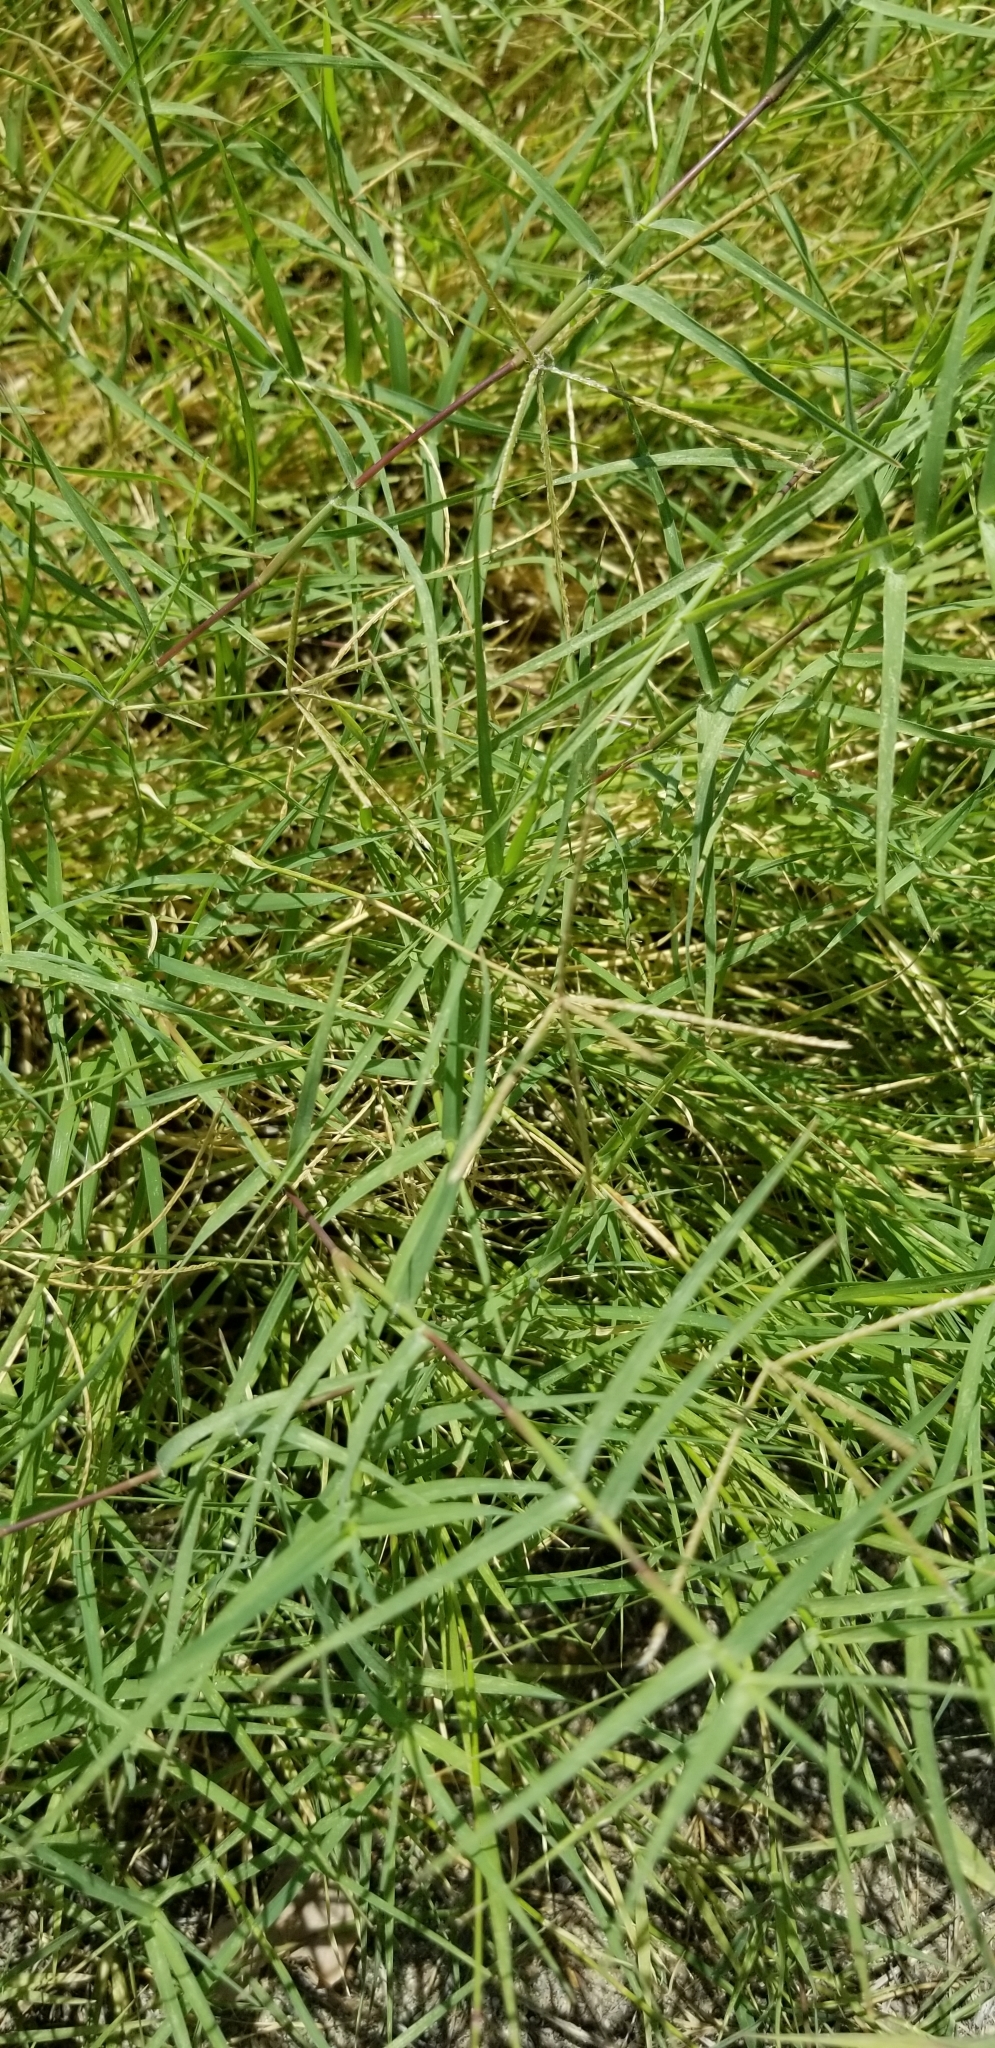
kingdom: Plantae
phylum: Tracheophyta
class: Liliopsida
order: Poales
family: Poaceae
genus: Cynodon
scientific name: Cynodon dactylon
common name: Bermuda grass
